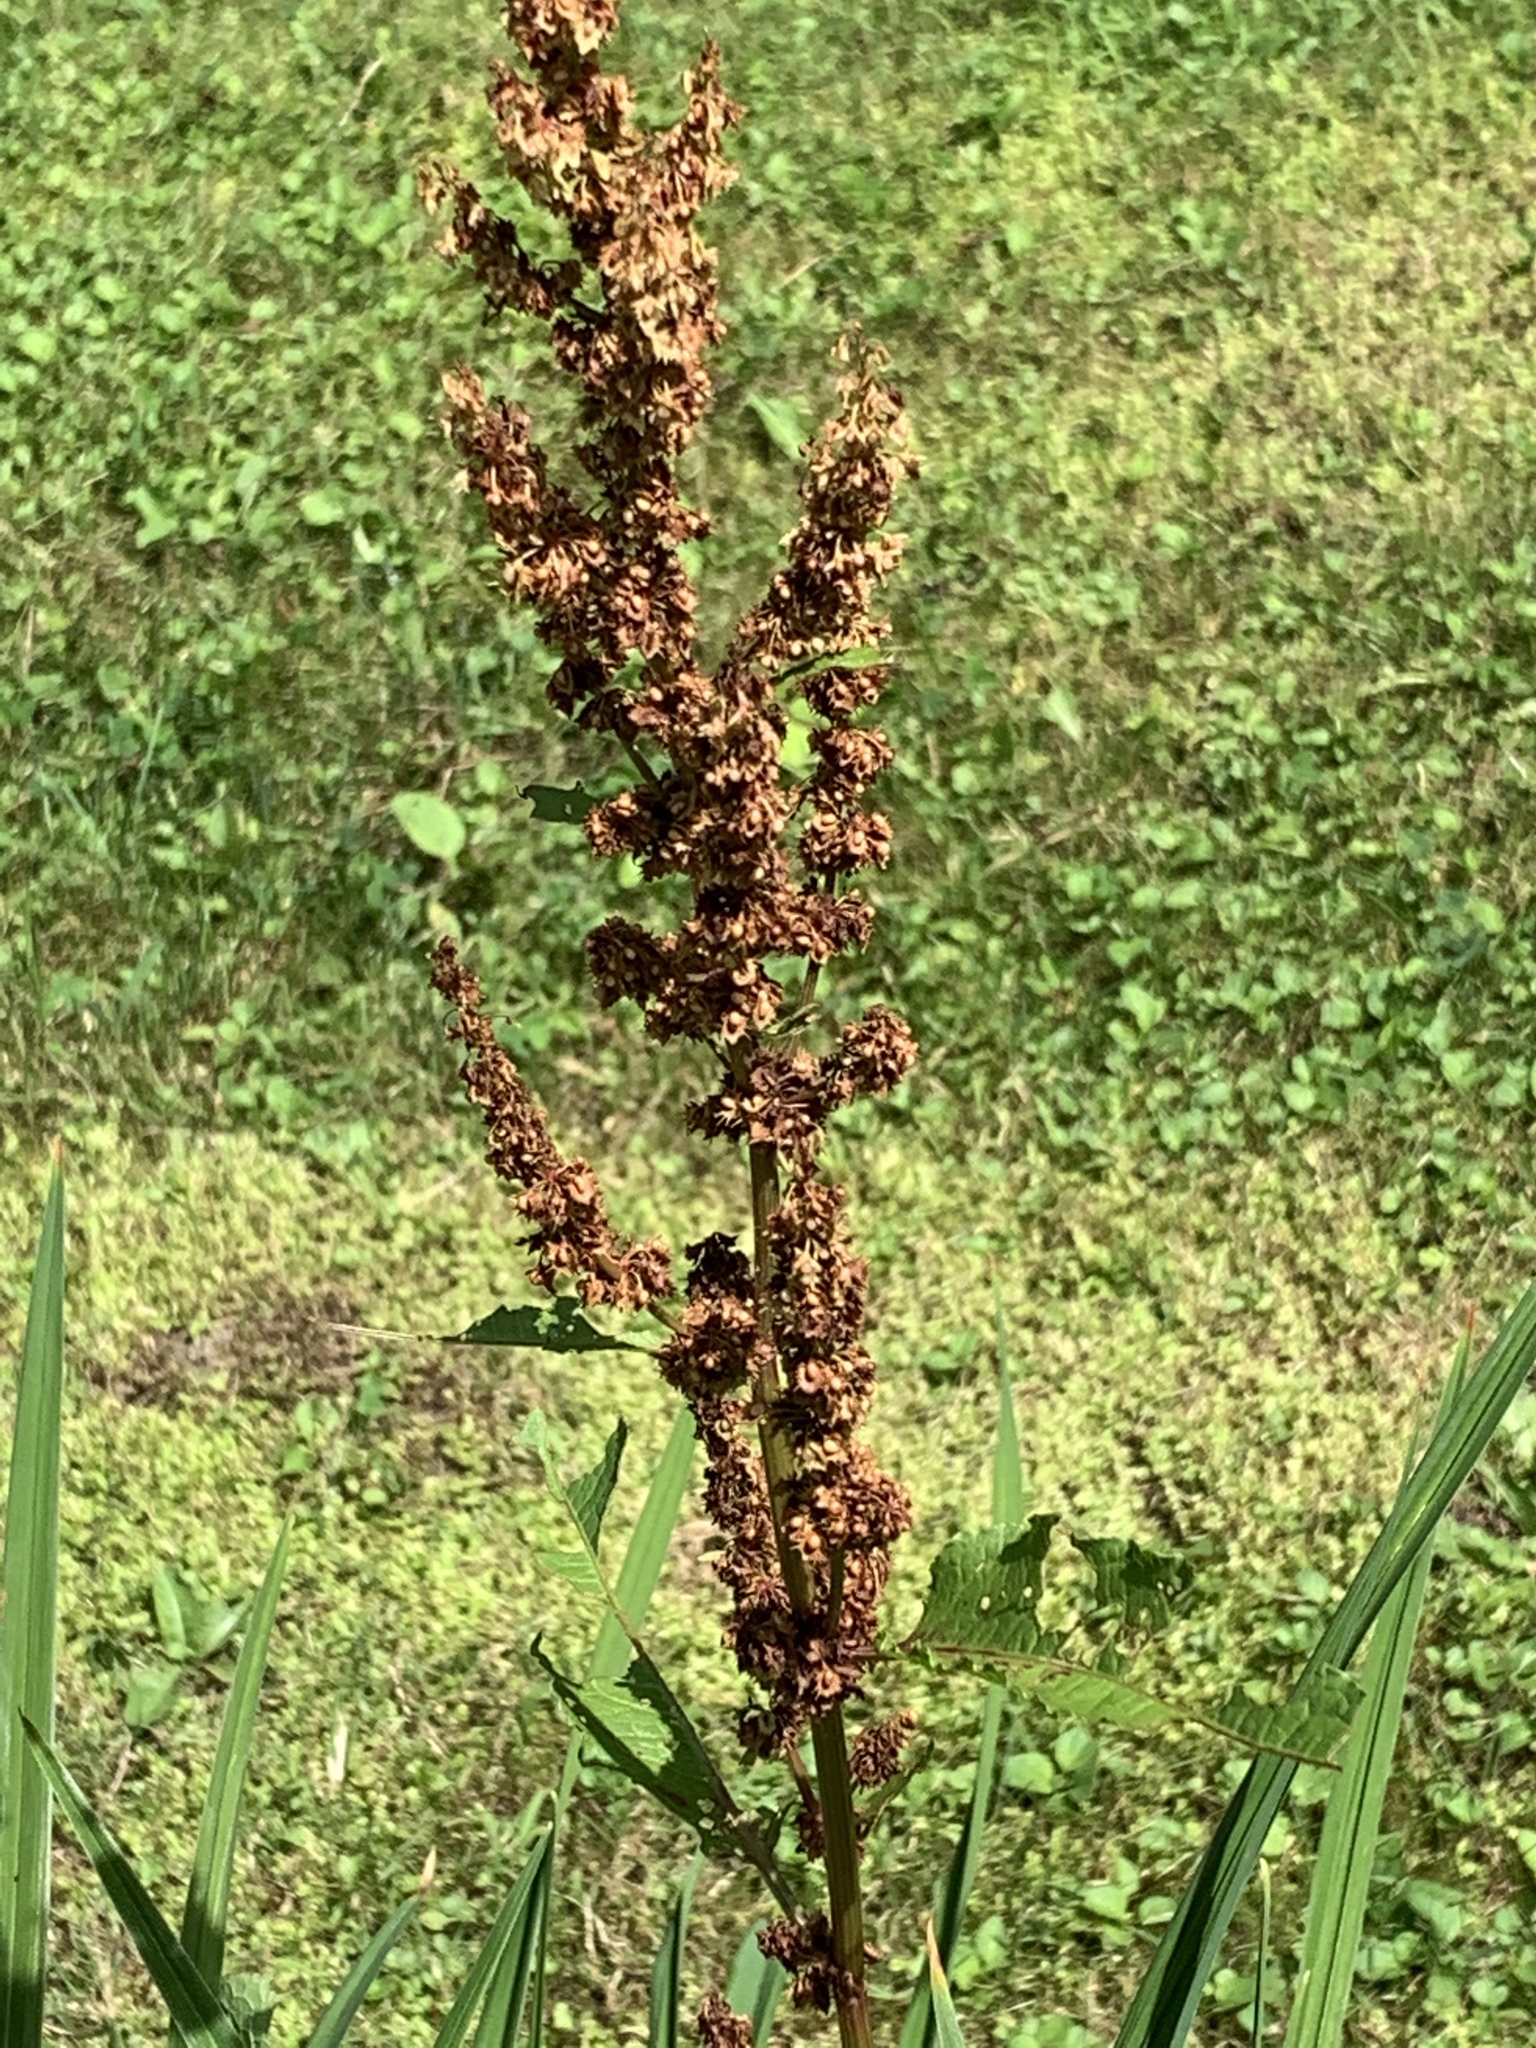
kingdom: Plantae
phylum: Tracheophyta
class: Magnoliopsida
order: Caryophyllales
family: Polygonaceae
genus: Rumex
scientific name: Rumex obtusifolius
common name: Bitter dock
